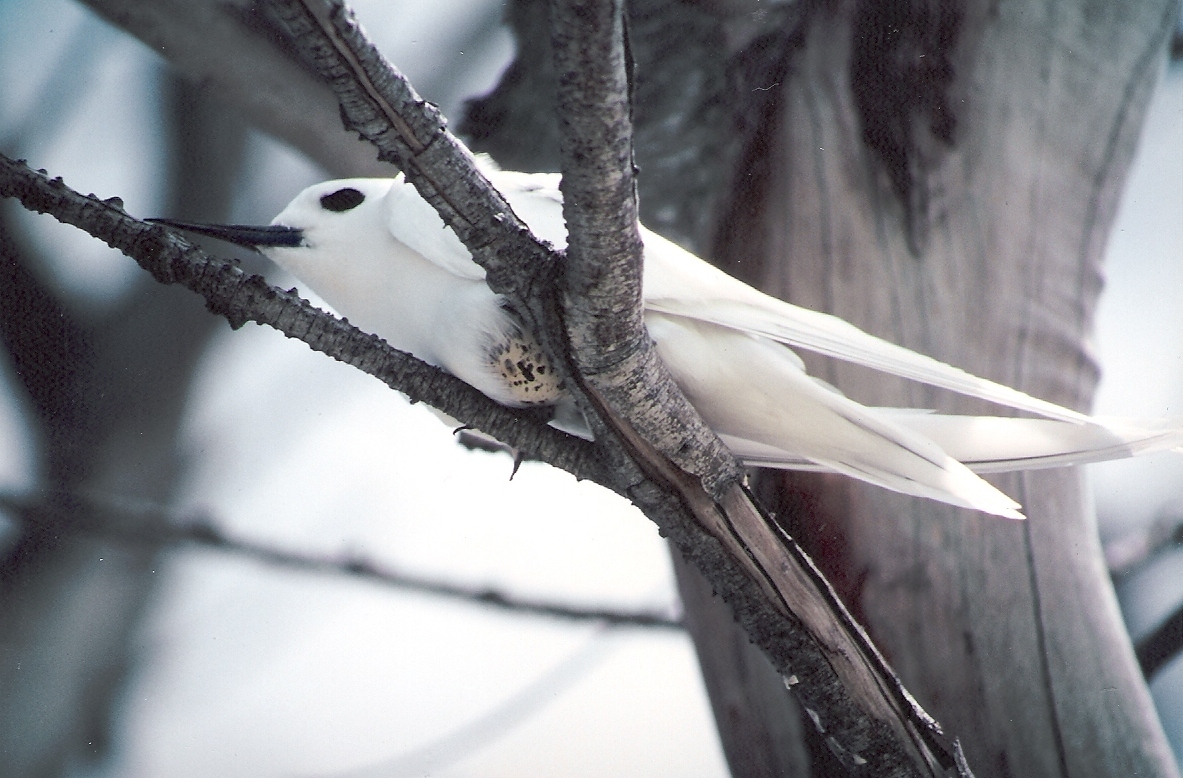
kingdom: Animalia
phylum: Chordata
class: Aves
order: Charadriiformes
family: Laridae
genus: Gygis
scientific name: Gygis alba
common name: White tern
